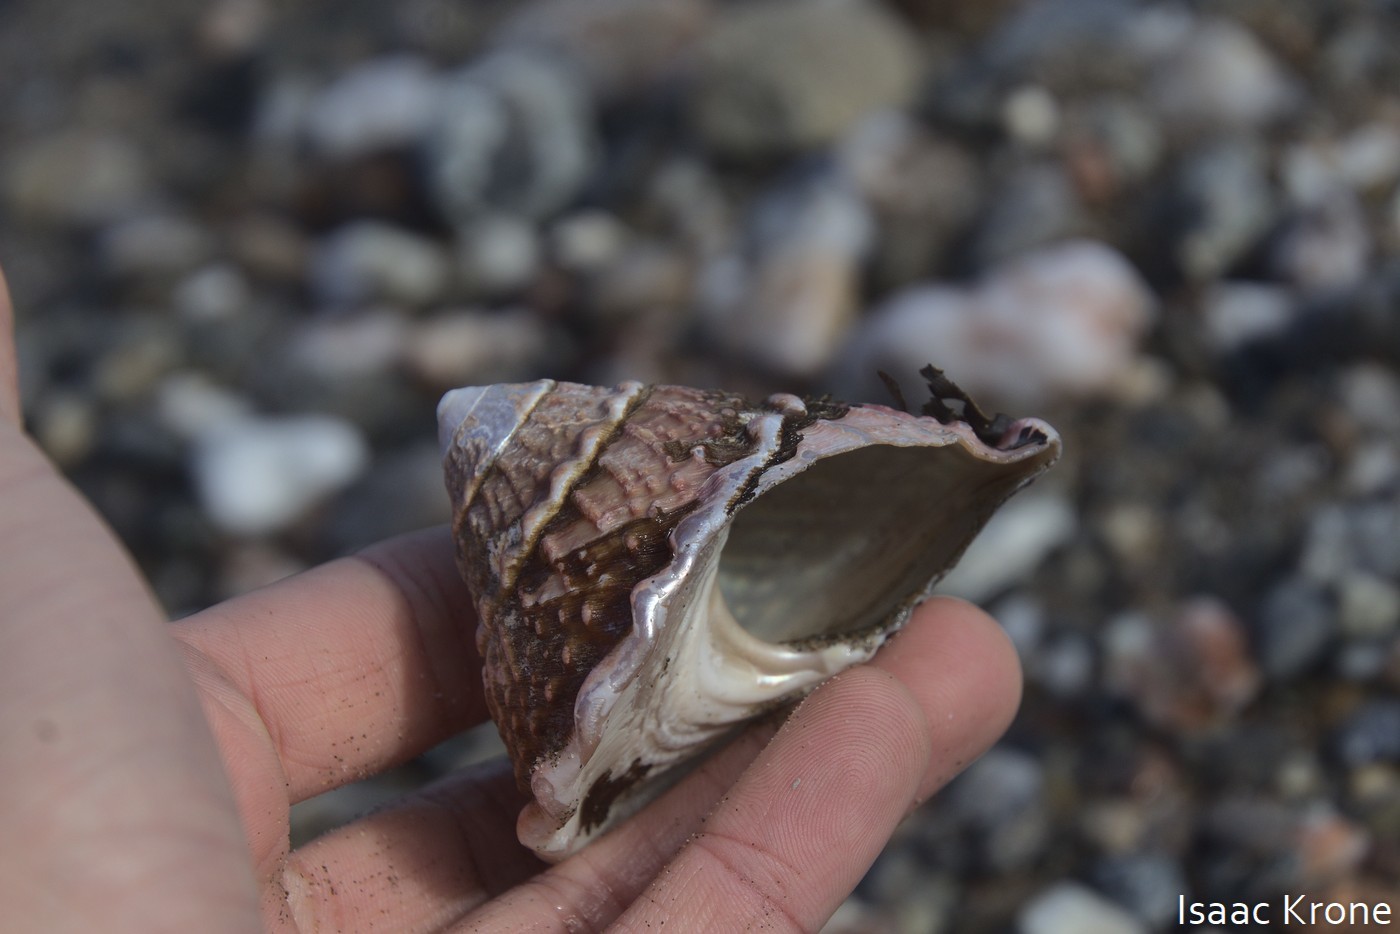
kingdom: Animalia
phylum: Mollusca
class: Gastropoda
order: Trochida
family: Turbinidae
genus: Megastraea
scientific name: Megastraea undosa
